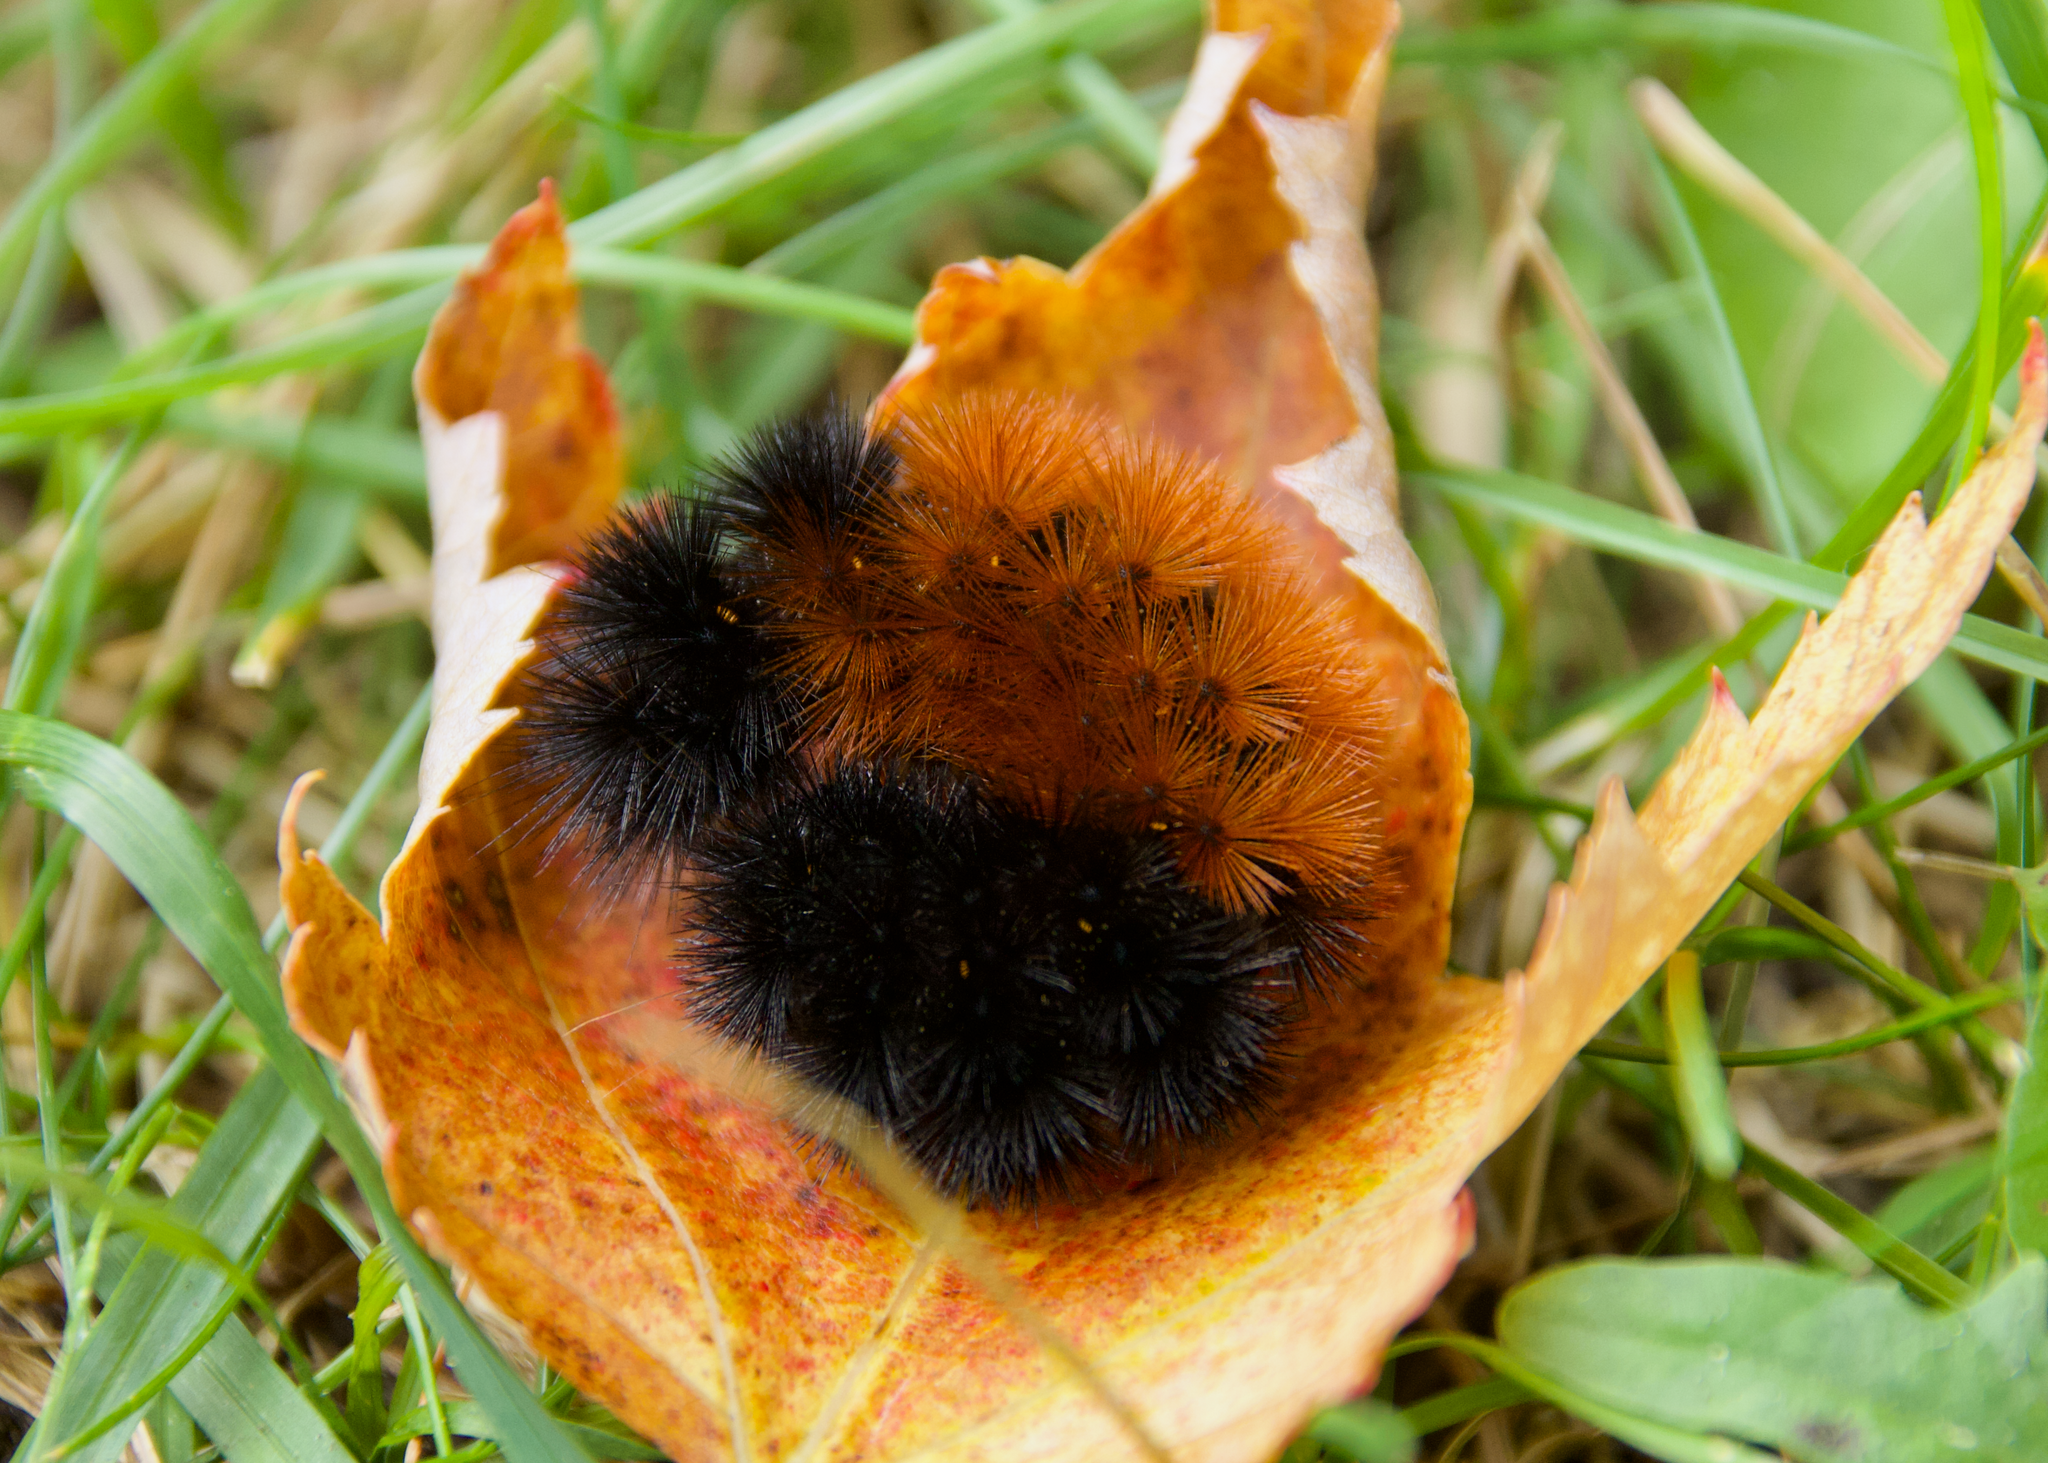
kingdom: Animalia
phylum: Arthropoda
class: Insecta
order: Lepidoptera
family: Erebidae
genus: Pyrrharctia
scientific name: Pyrrharctia isabella
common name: Isabella tiger moth
